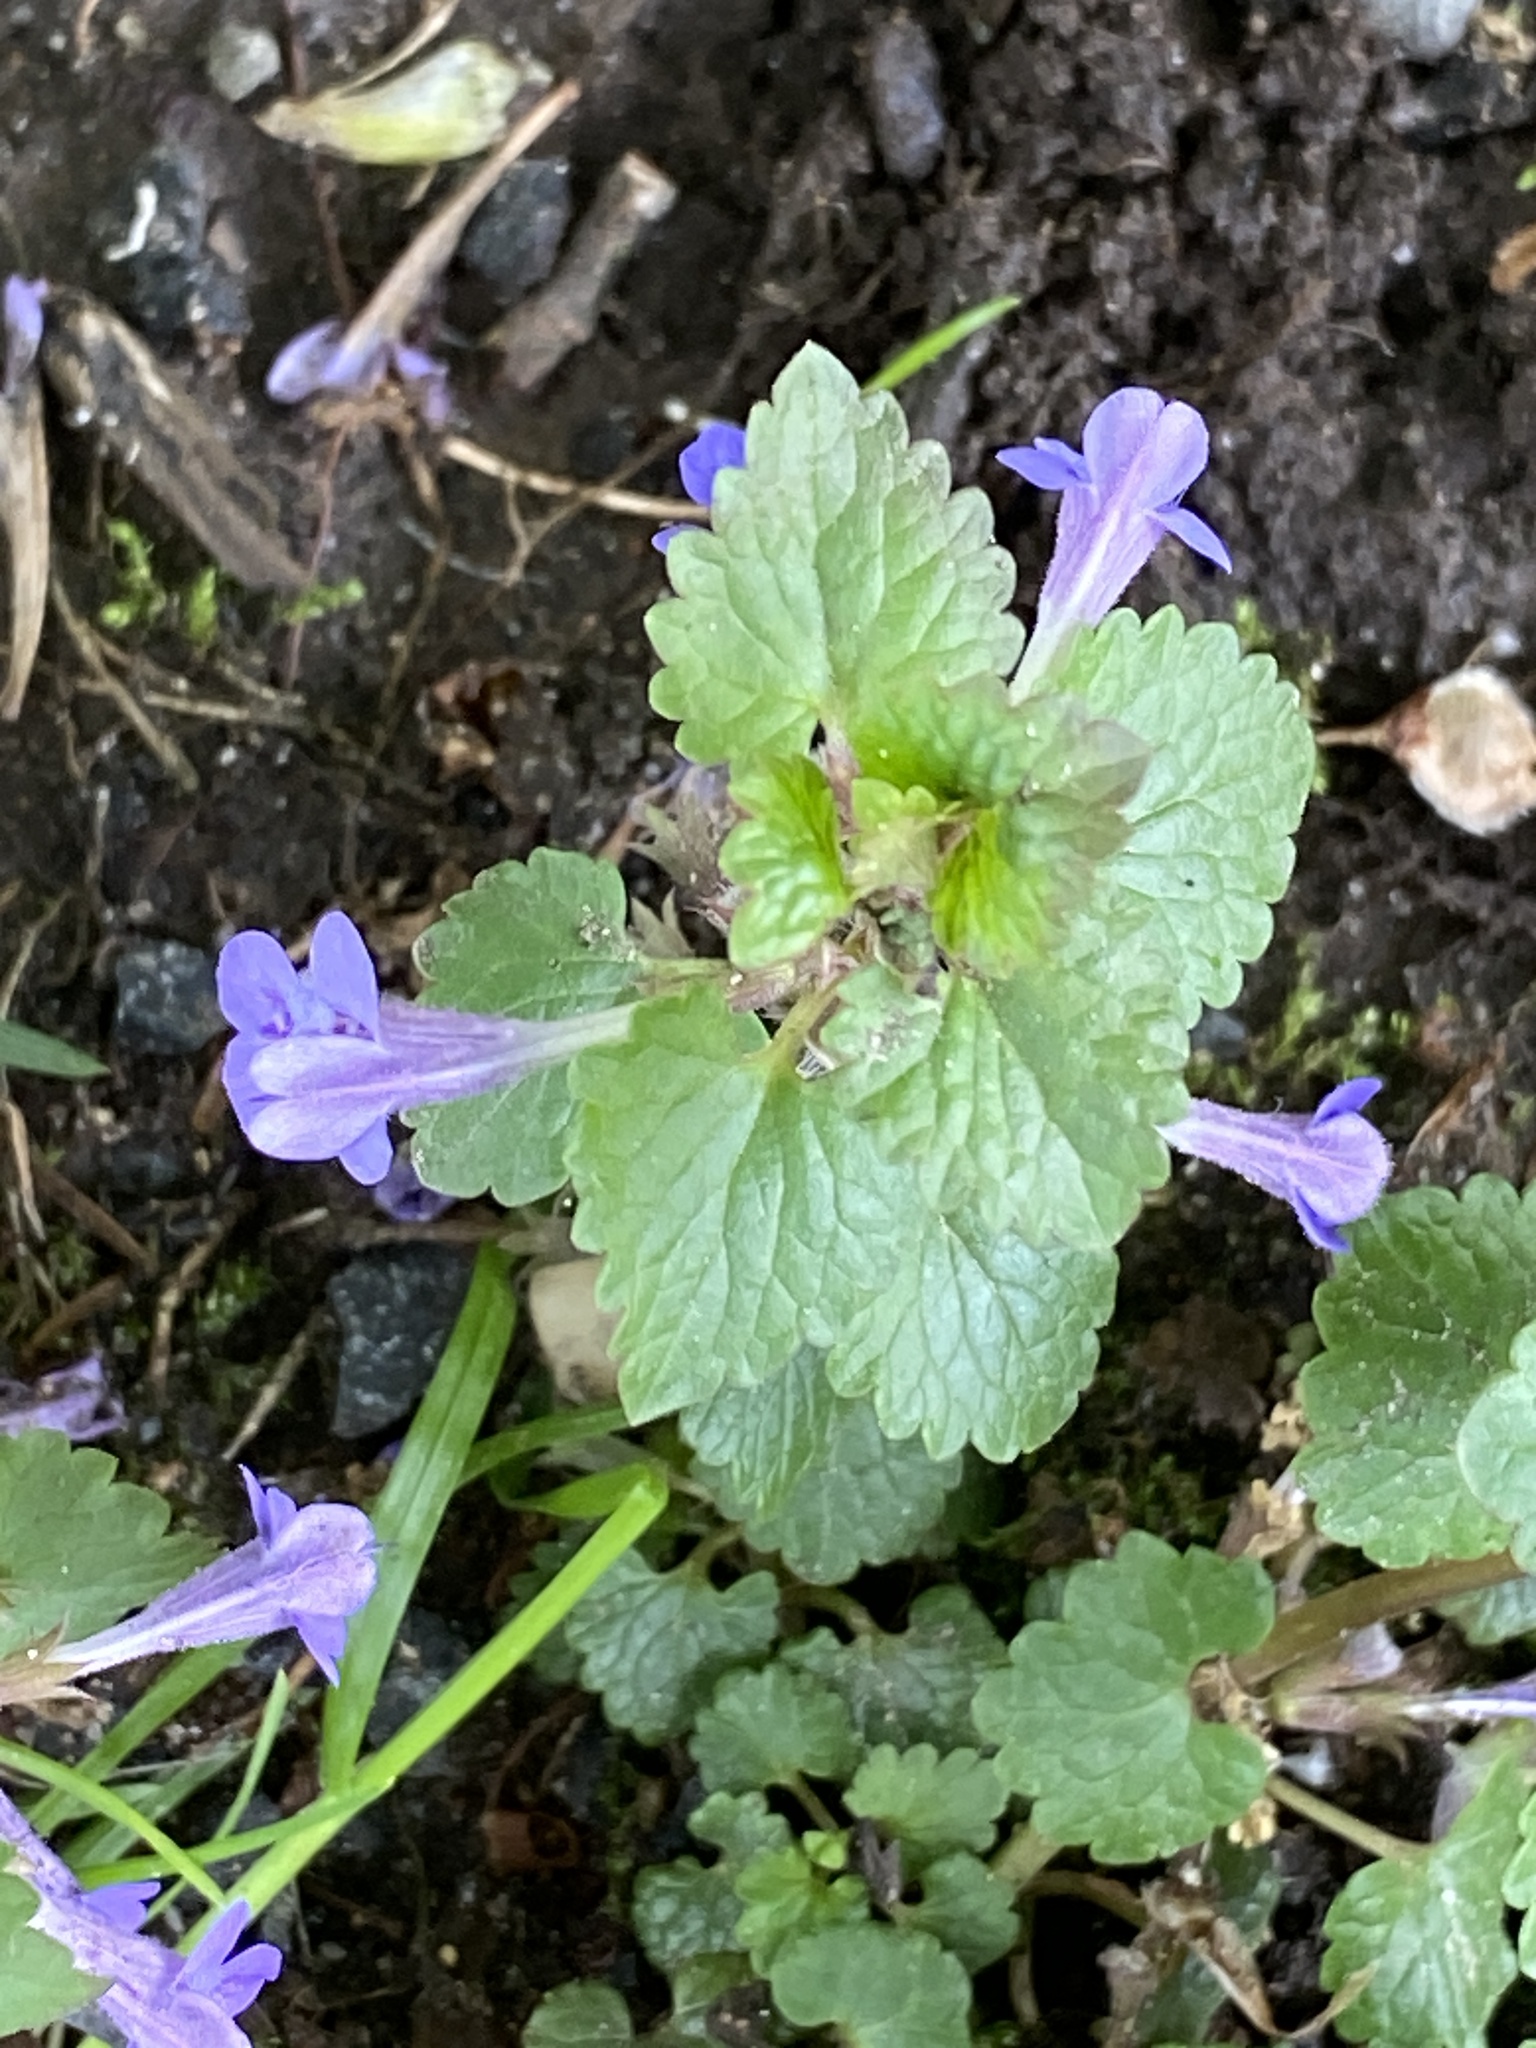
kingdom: Plantae
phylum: Tracheophyta
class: Magnoliopsida
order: Lamiales
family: Lamiaceae
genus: Glechoma
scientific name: Glechoma hederacea
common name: Ground ivy
